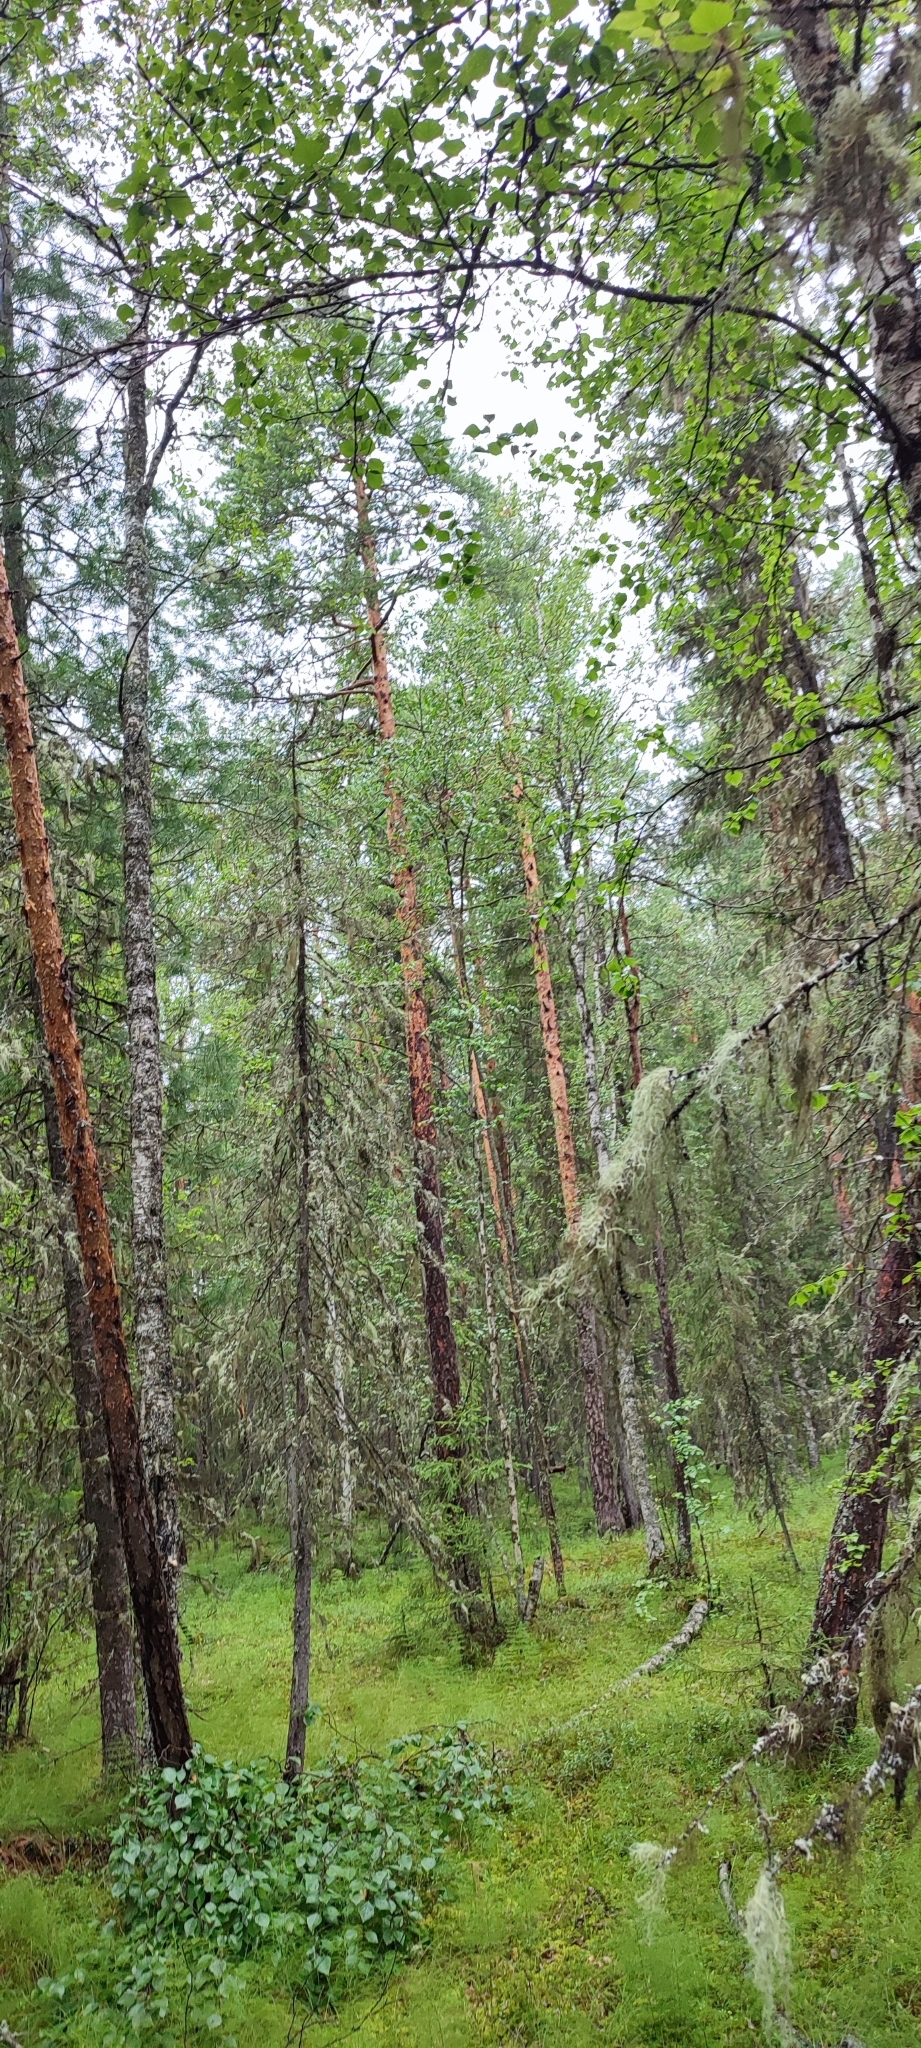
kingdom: Plantae
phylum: Tracheophyta
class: Pinopsida
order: Pinales
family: Pinaceae
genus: Pinus
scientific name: Pinus sylvestris
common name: Scots pine
